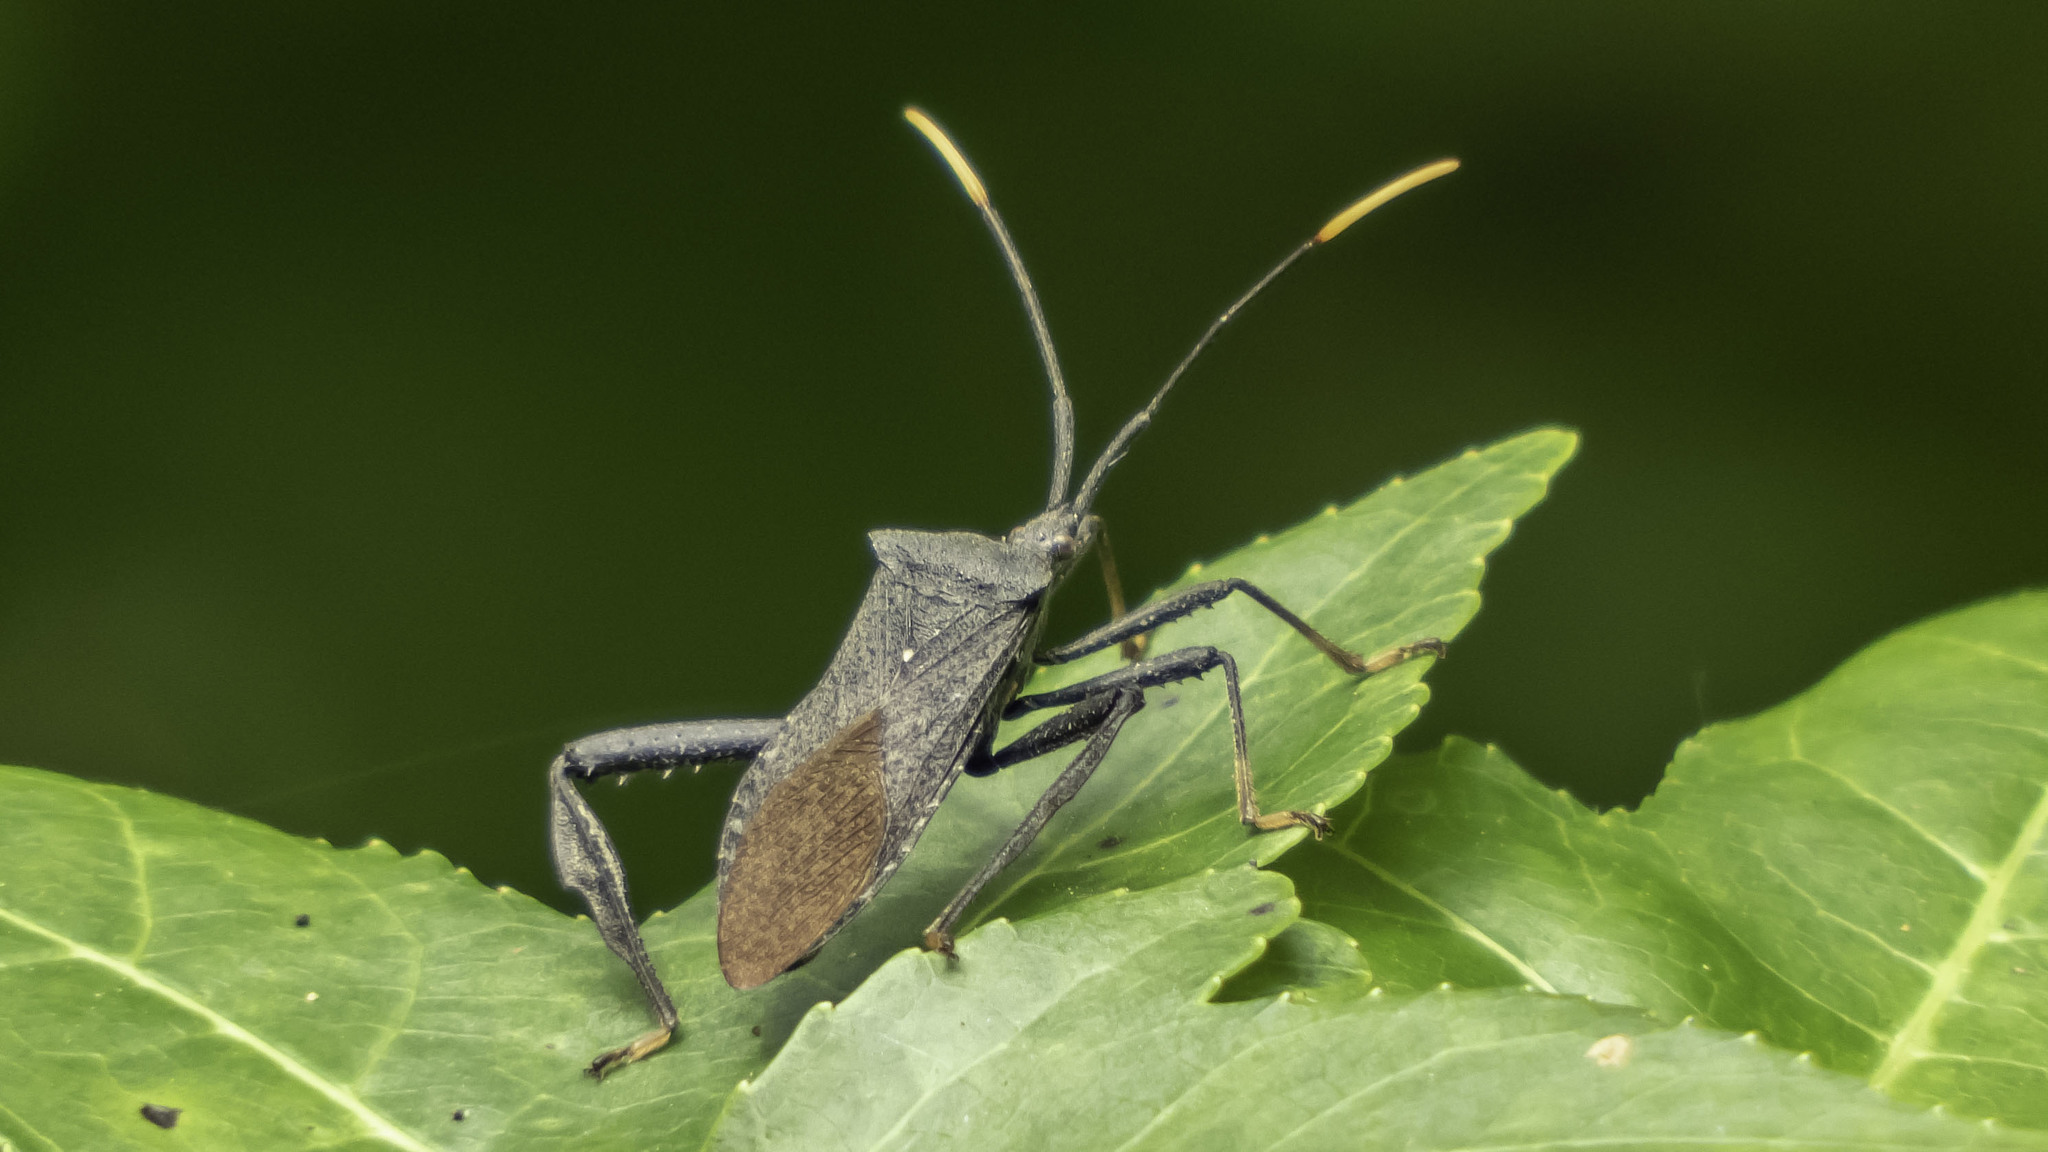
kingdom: Animalia
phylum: Arthropoda
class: Insecta
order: Hemiptera
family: Coreidae
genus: Acanthocephala
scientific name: Acanthocephala terminalis
